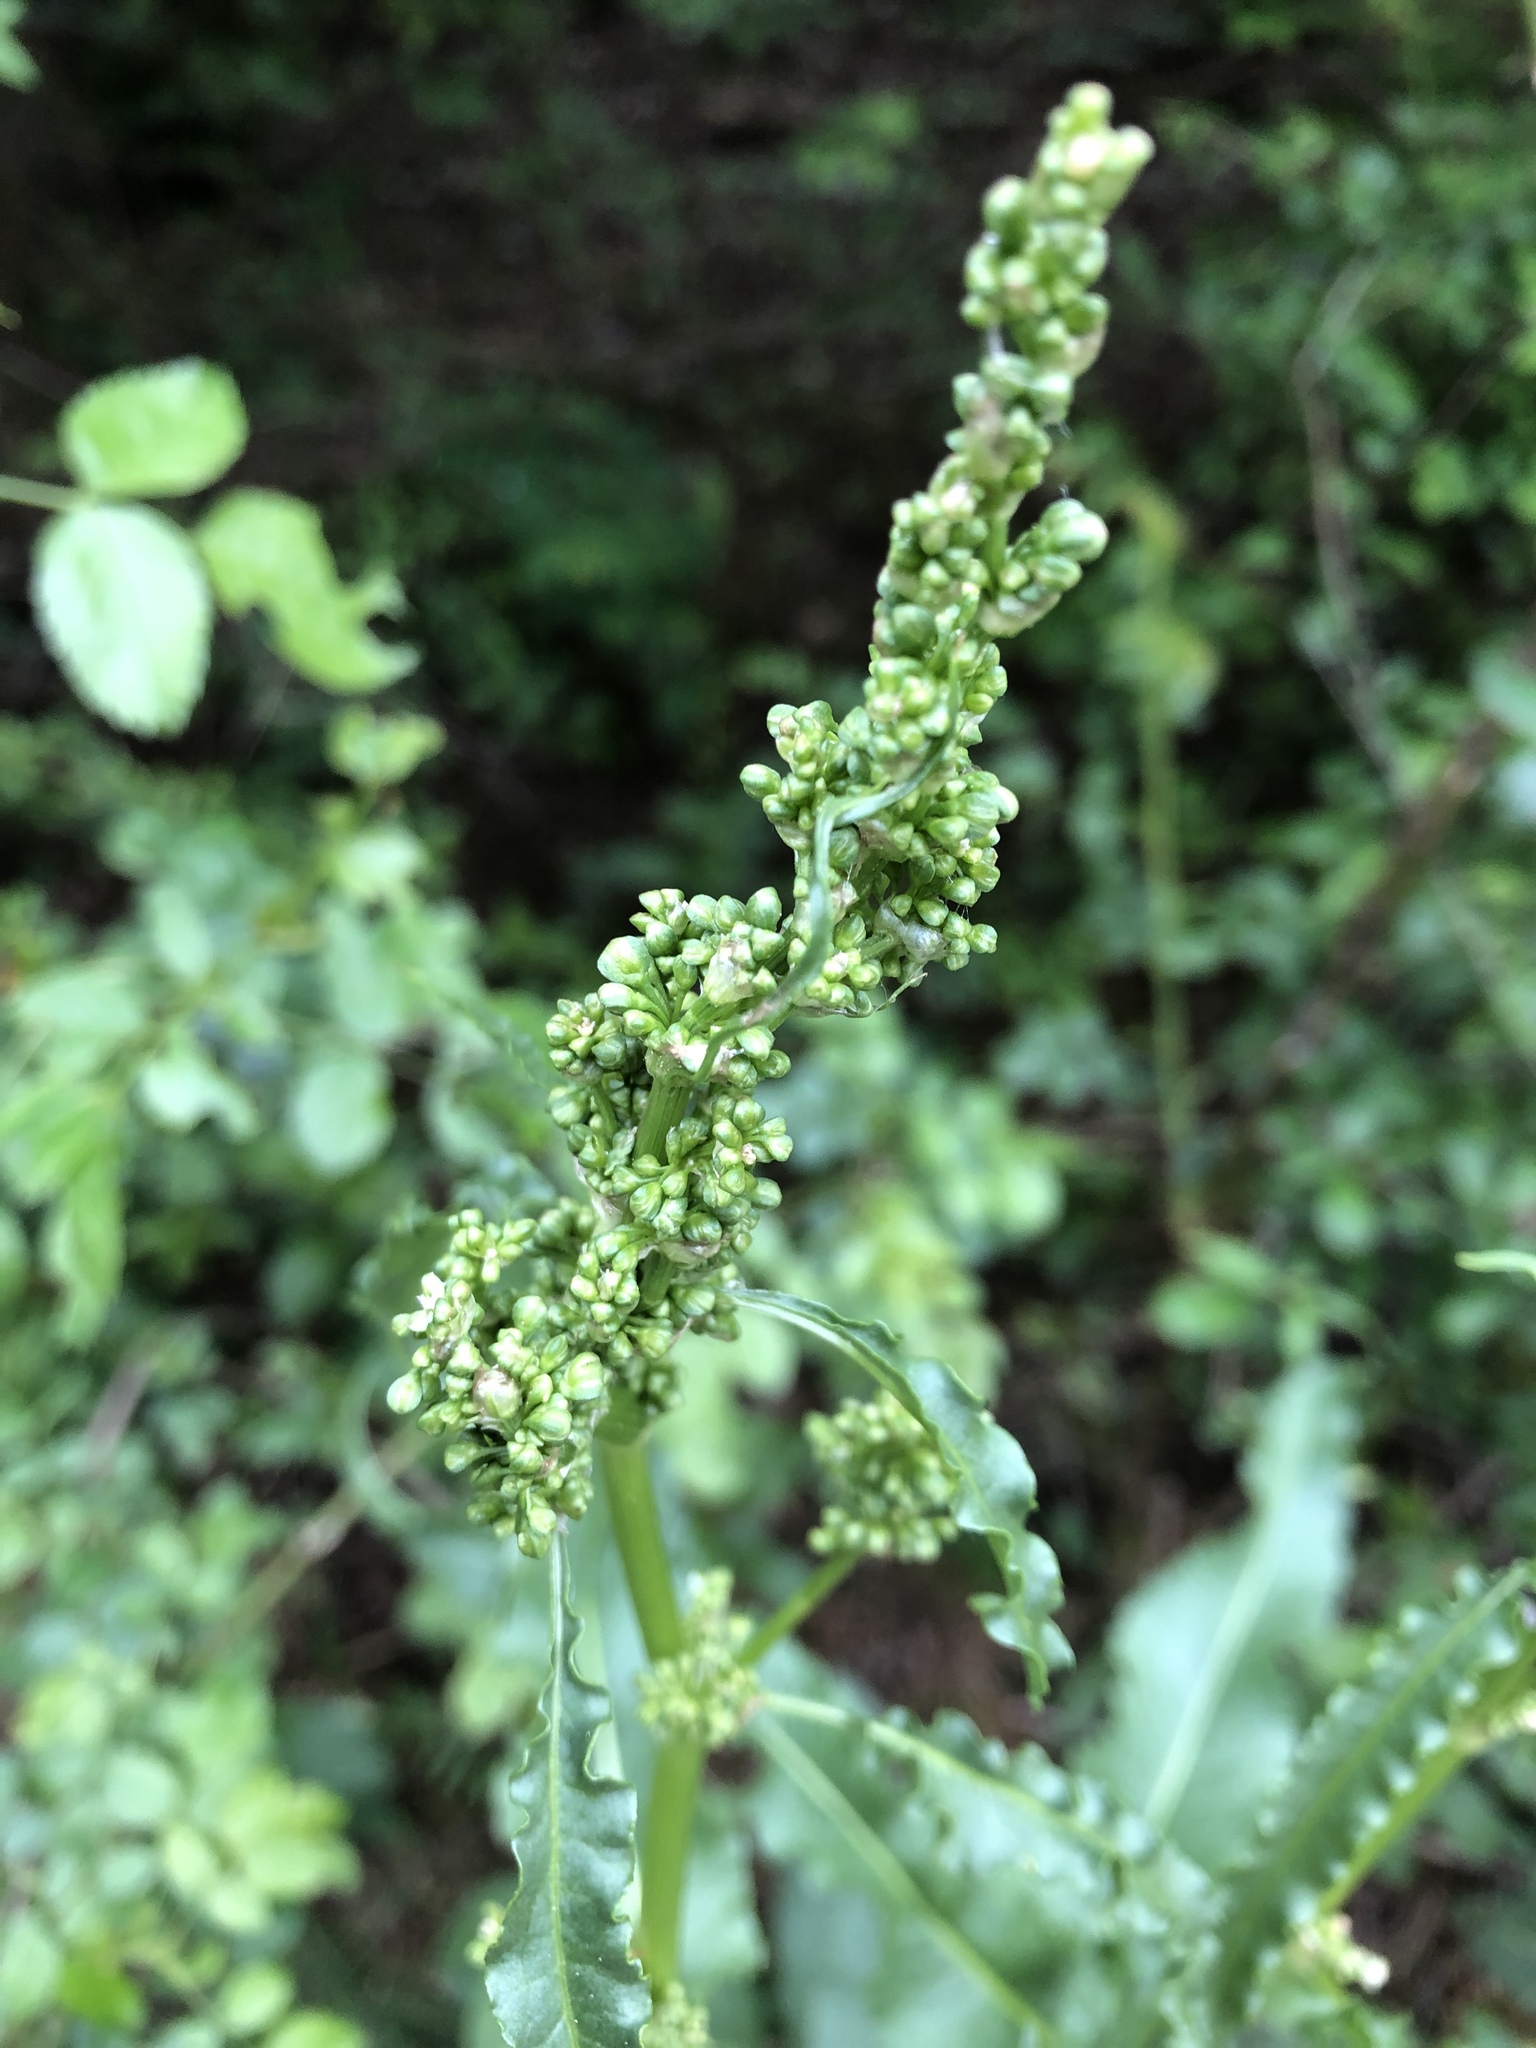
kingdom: Plantae
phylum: Tracheophyta
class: Magnoliopsida
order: Caryophyllales
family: Polygonaceae
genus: Rumex
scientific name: Rumex crispus
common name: Curled dock
